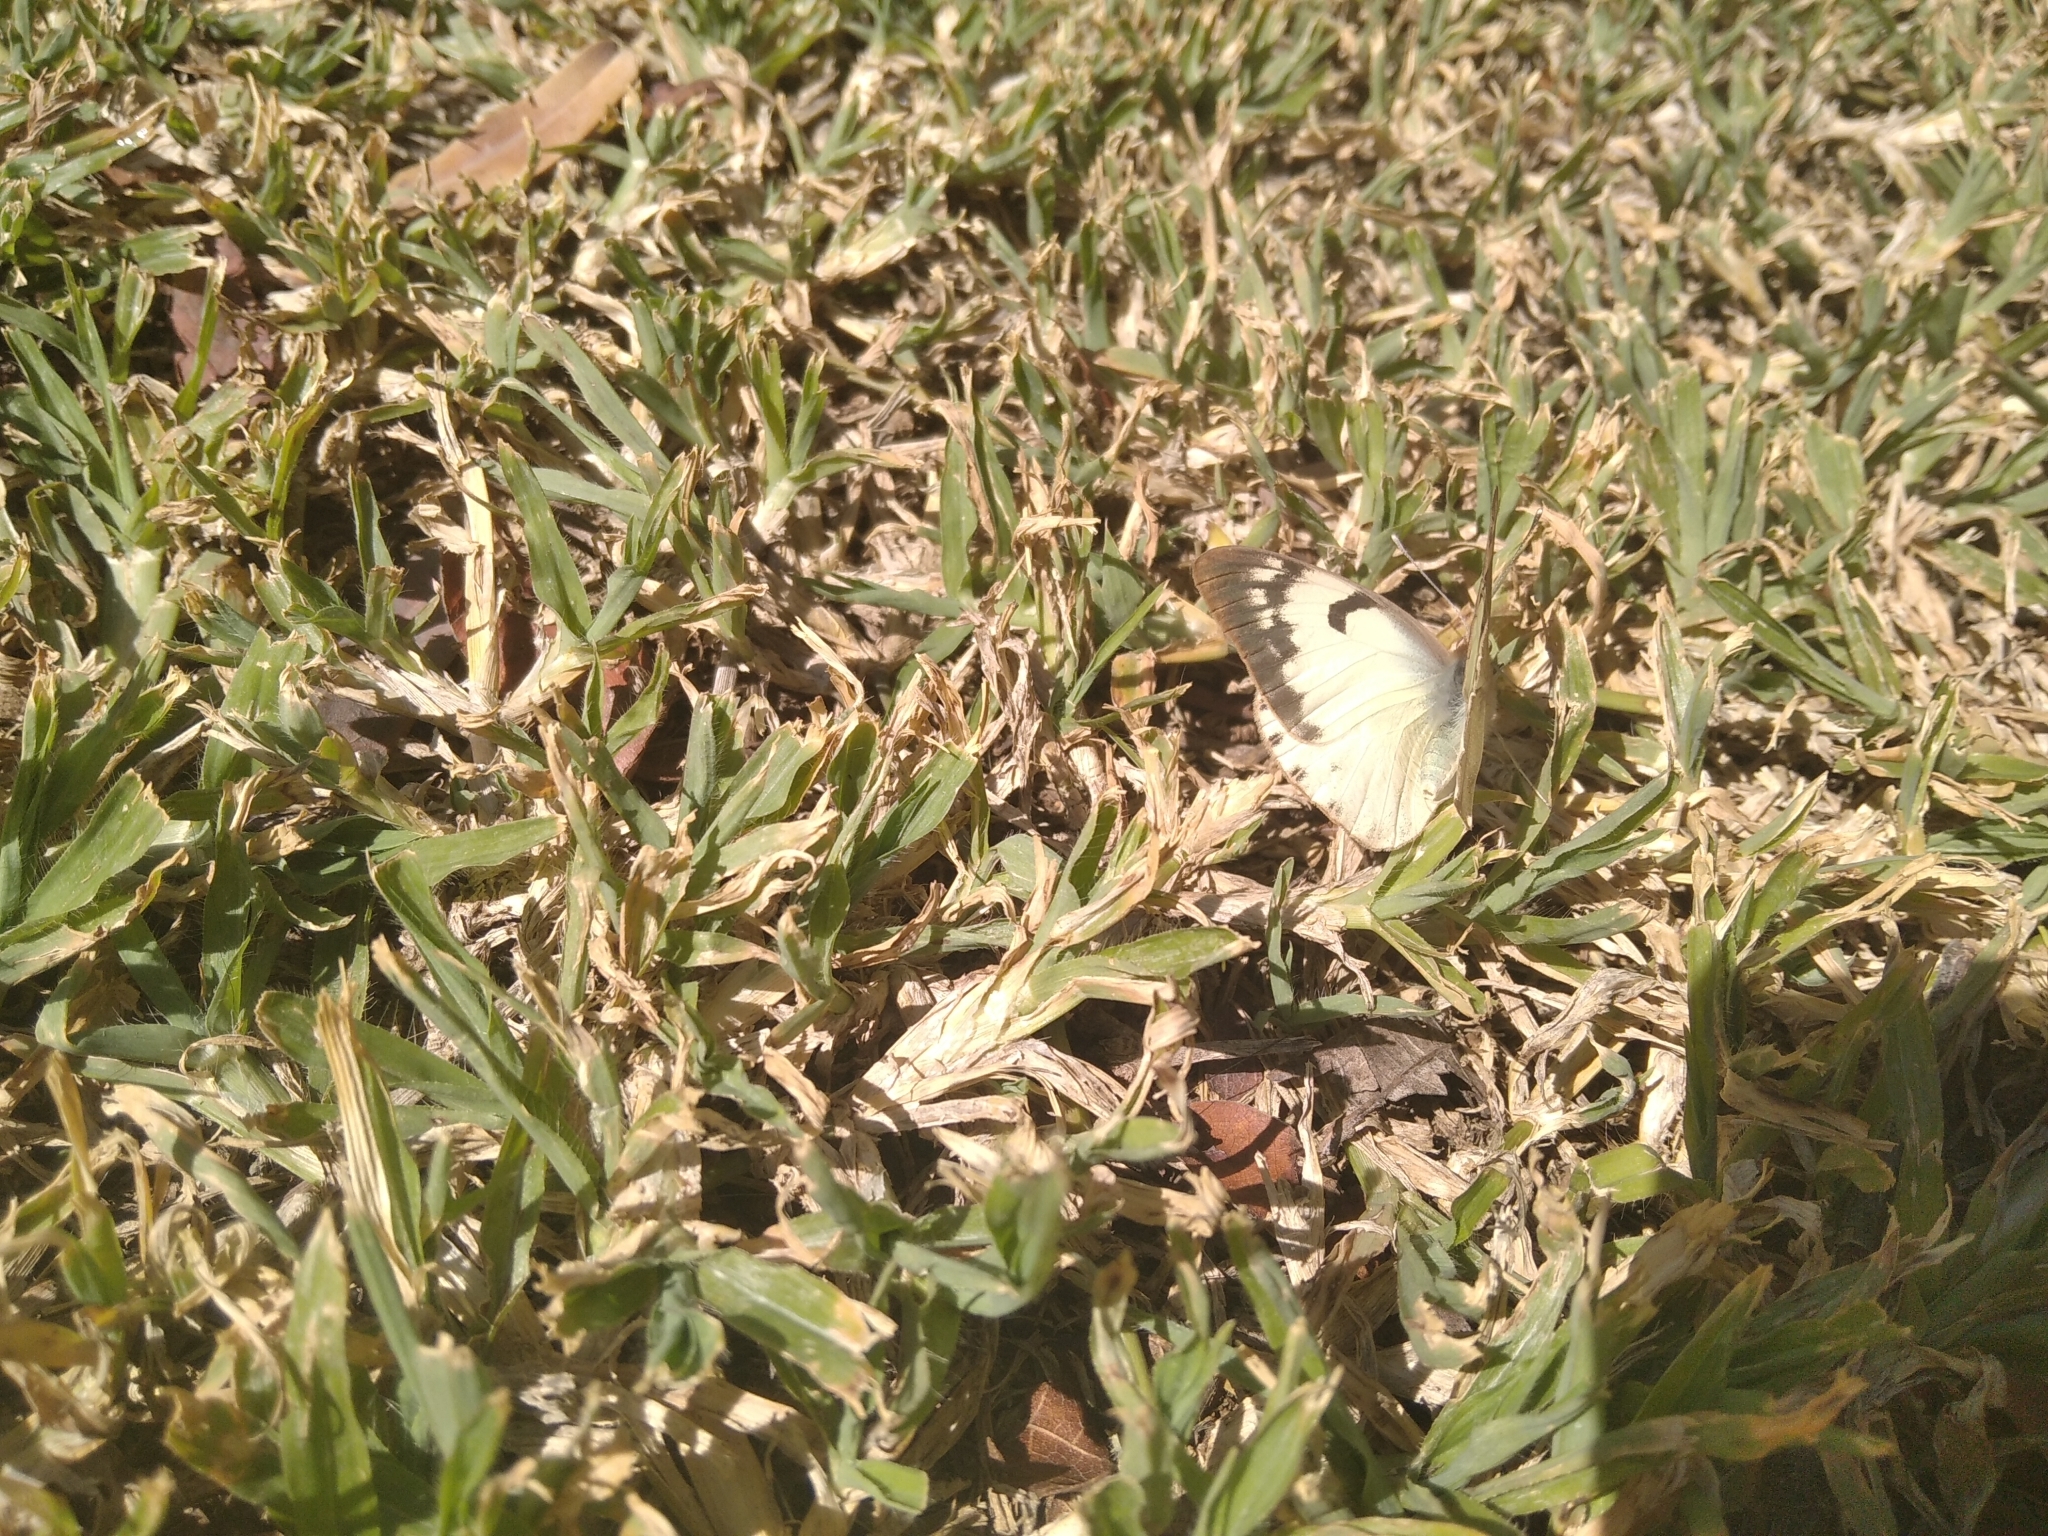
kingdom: Animalia
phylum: Arthropoda
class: Insecta
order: Lepidoptera
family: Pieridae
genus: Belenois
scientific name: Belenois gidica
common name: Pointed caper white
